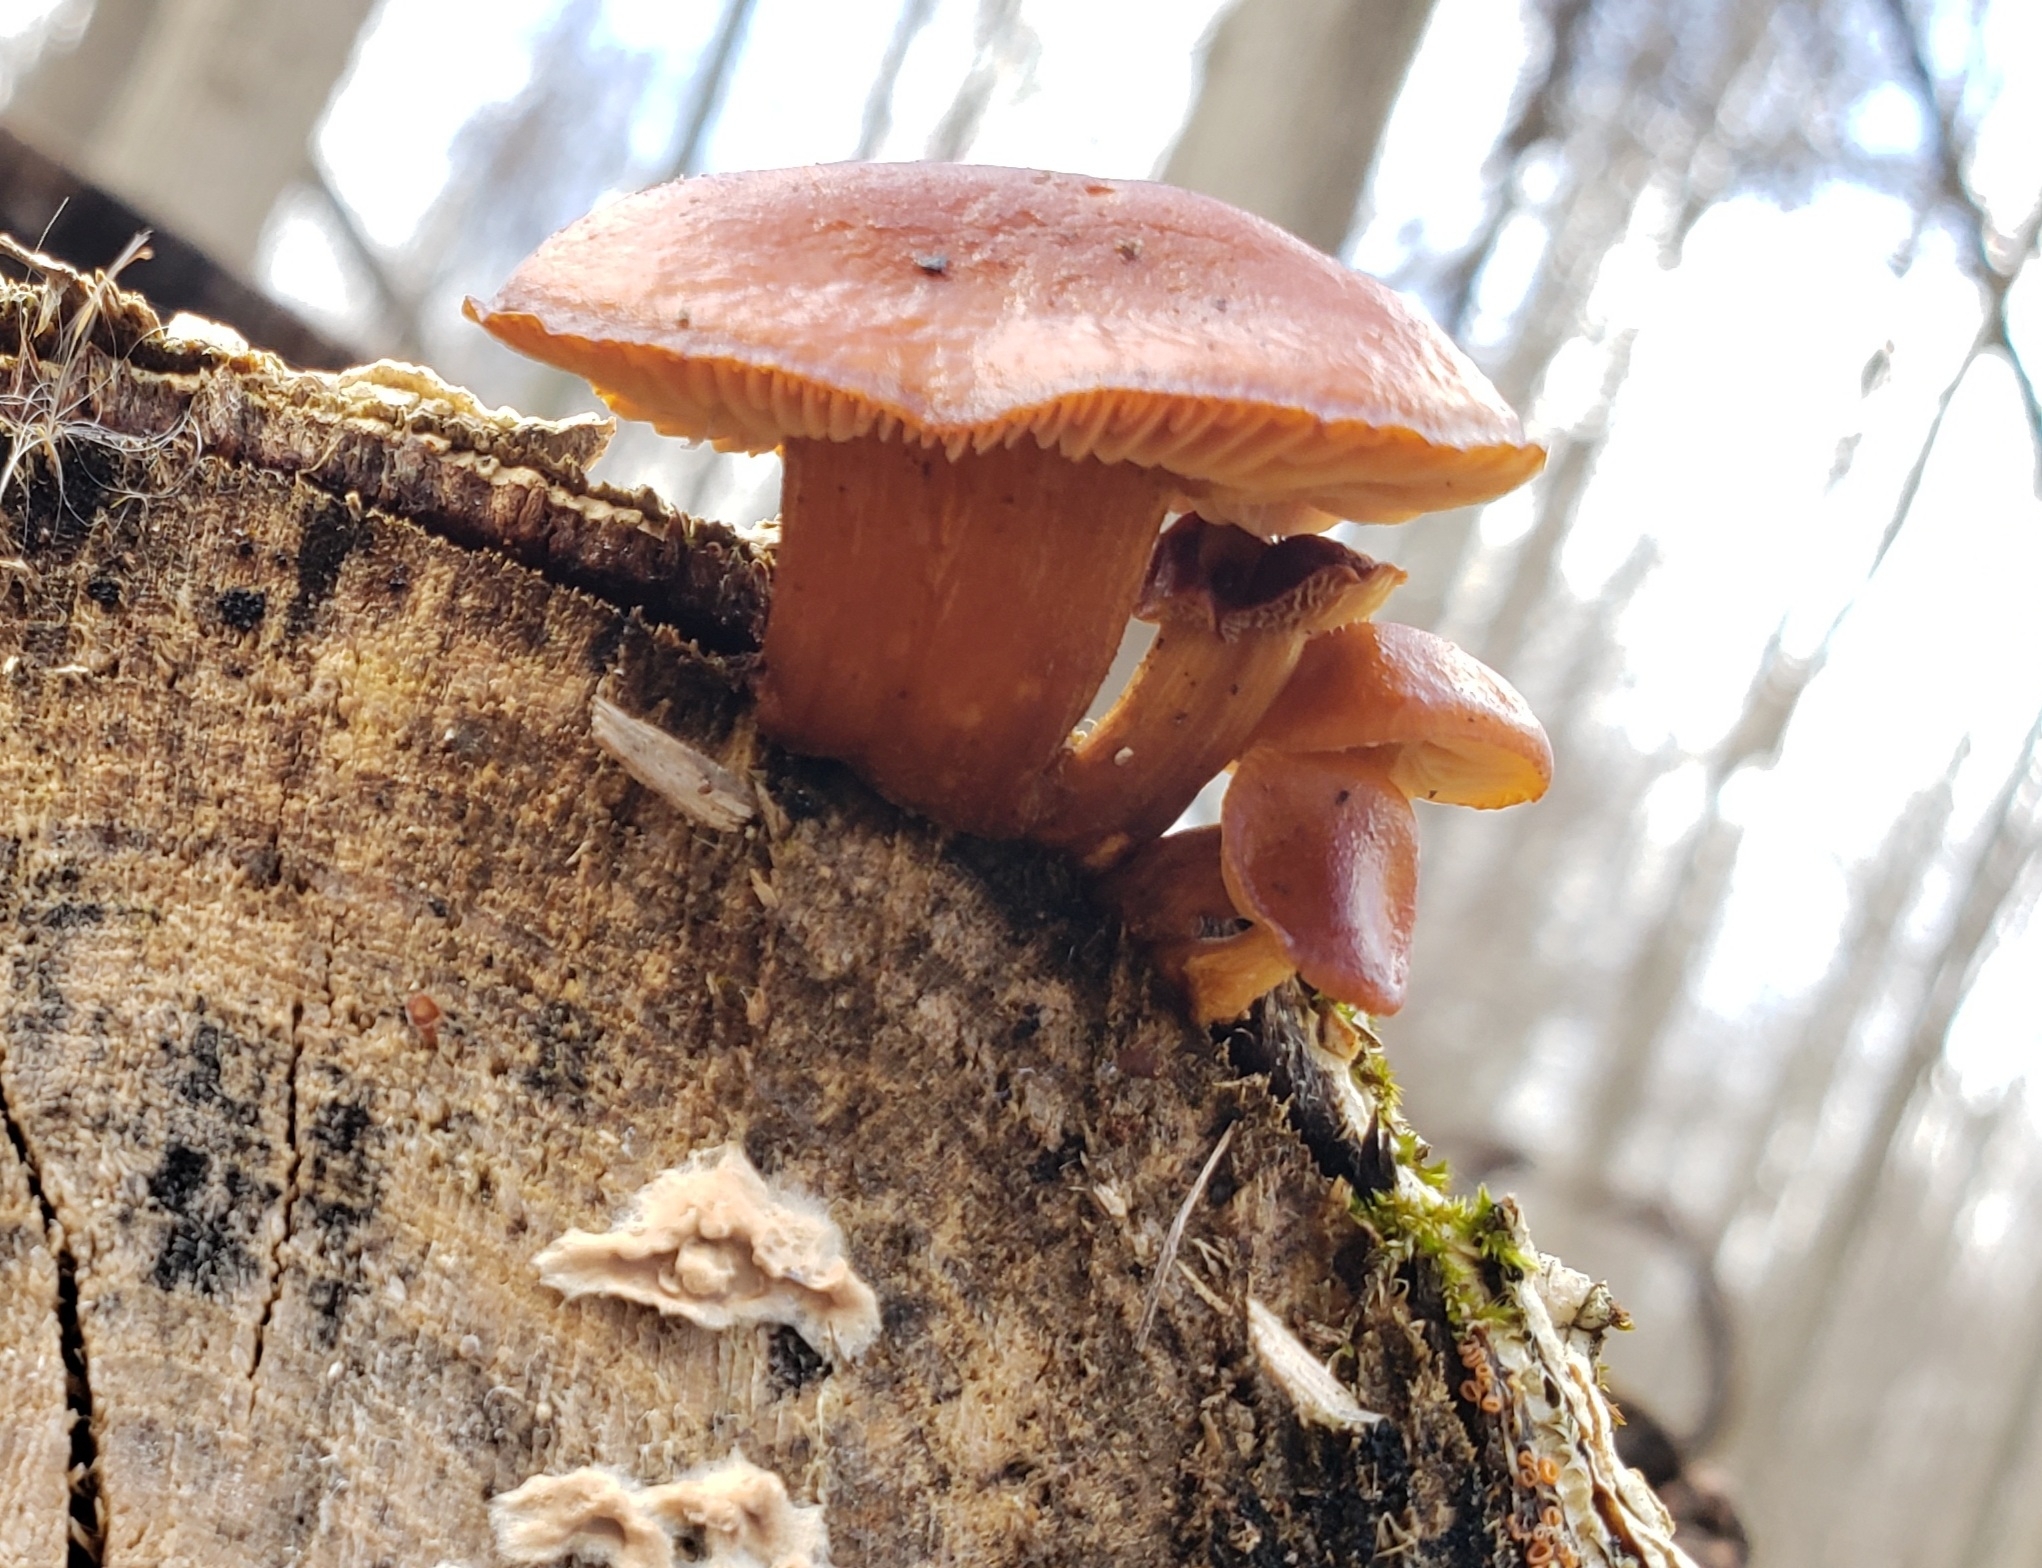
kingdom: Fungi
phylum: Basidiomycota
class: Agaricomycetes
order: Agaricales
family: Physalacriaceae
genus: Flammulina
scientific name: Flammulina velutipes
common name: Velvet shank
